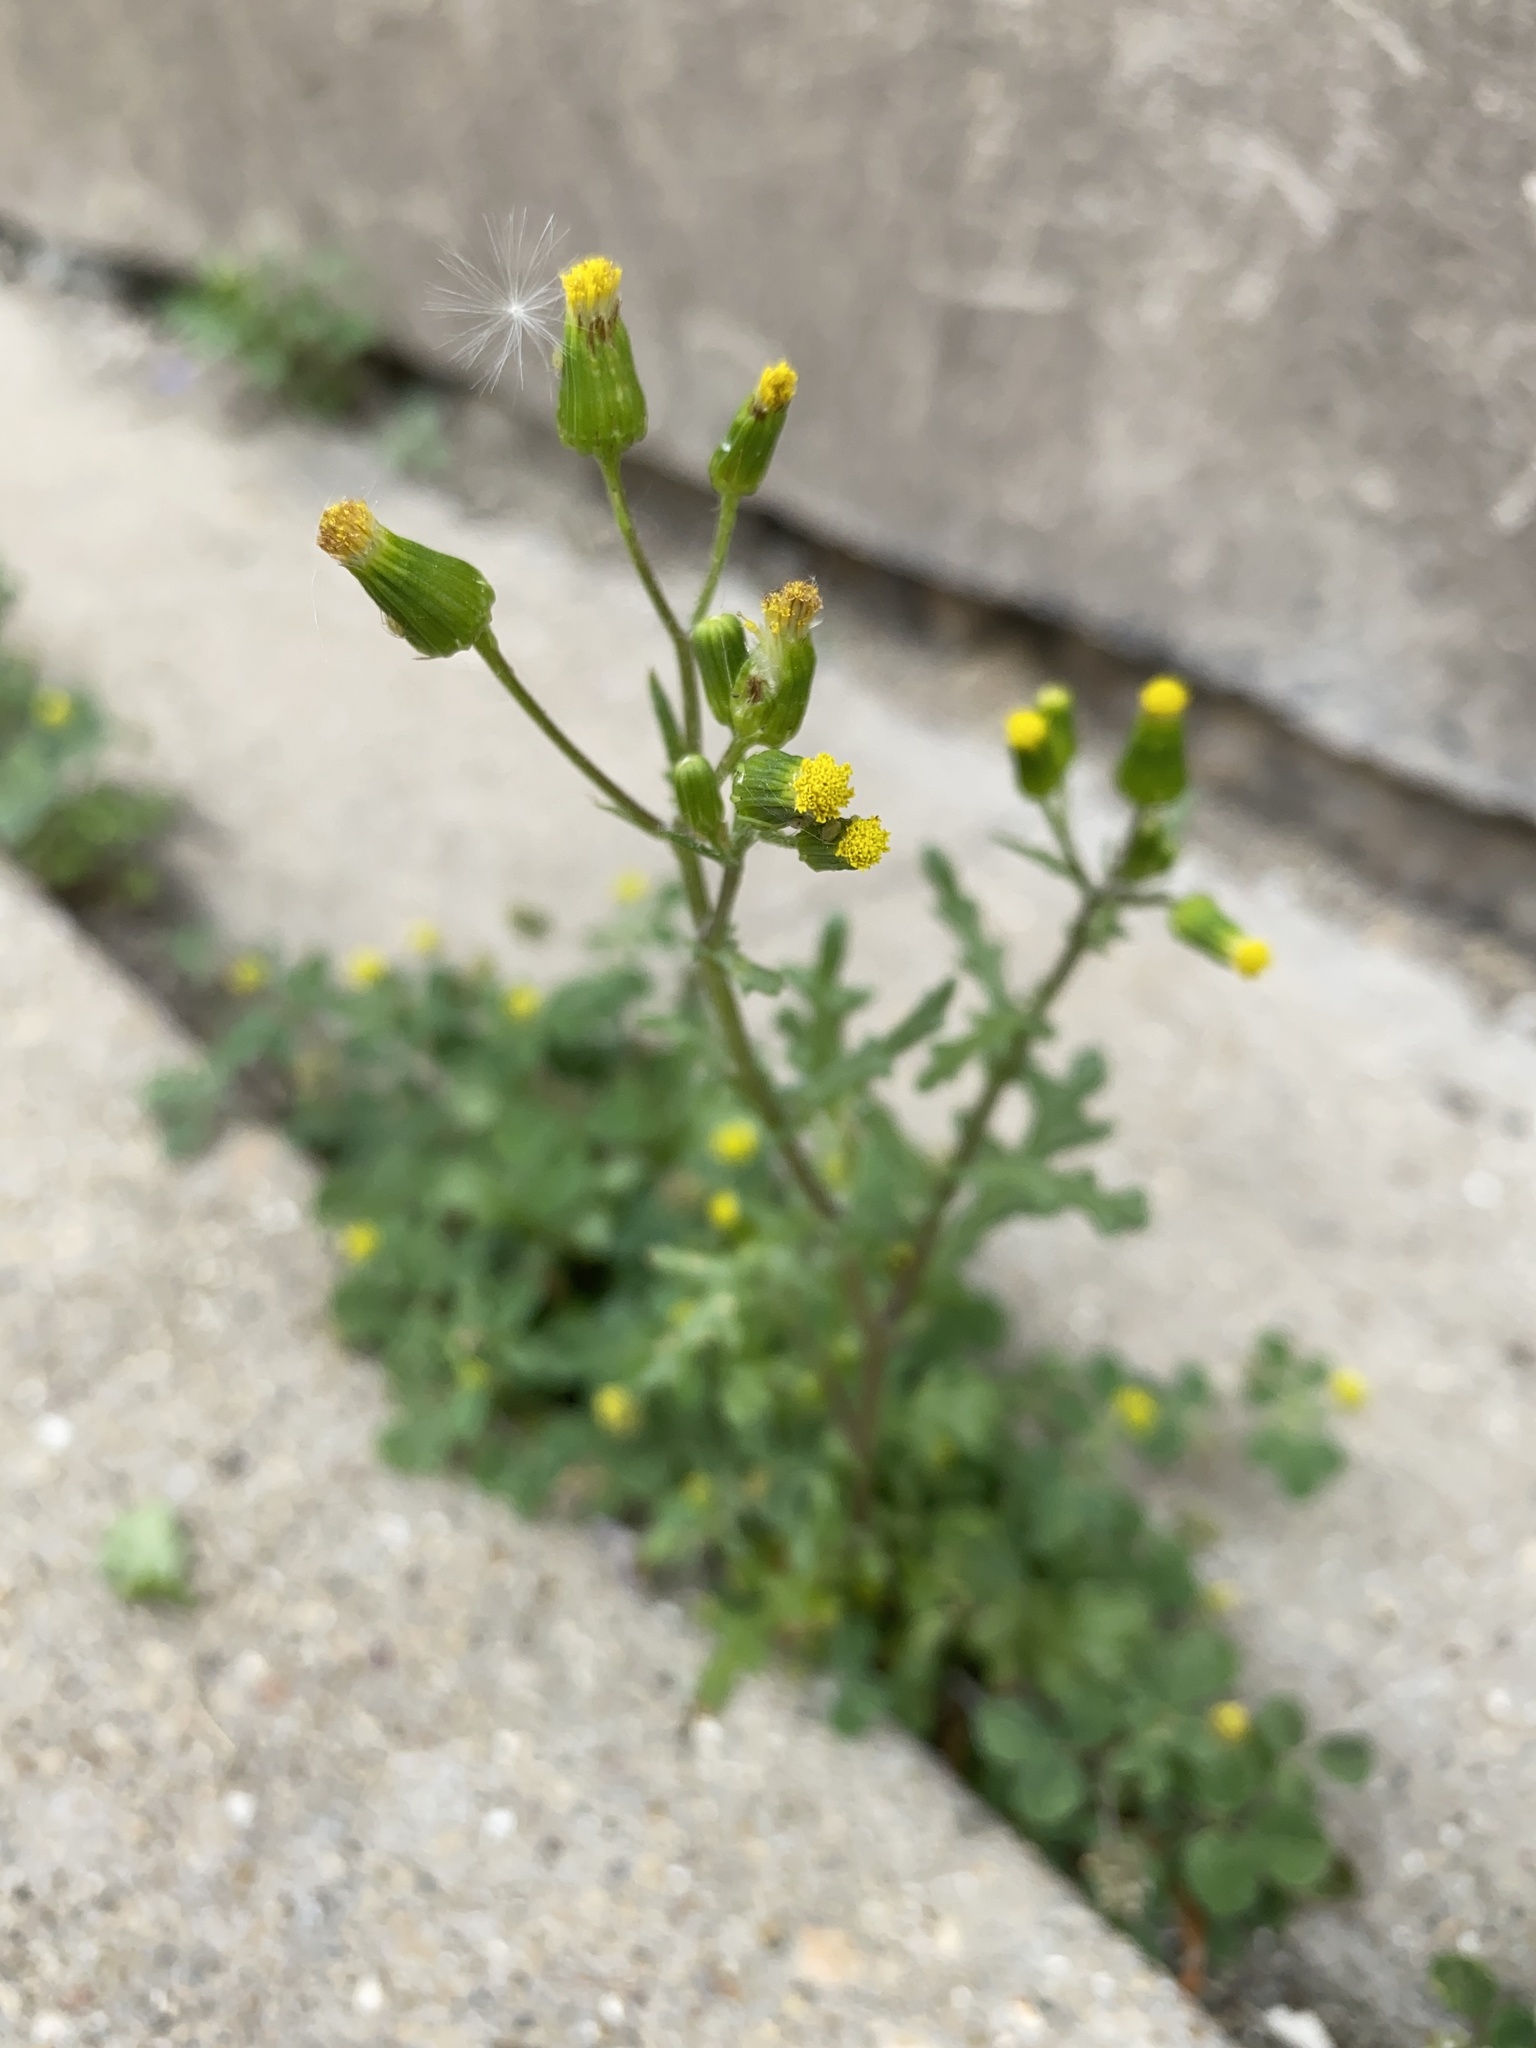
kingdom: Plantae
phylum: Tracheophyta
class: Magnoliopsida
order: Asterales
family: Asteraceae
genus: Senecio
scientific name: Senecio vulgaris
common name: Old-man-in-the-spring
